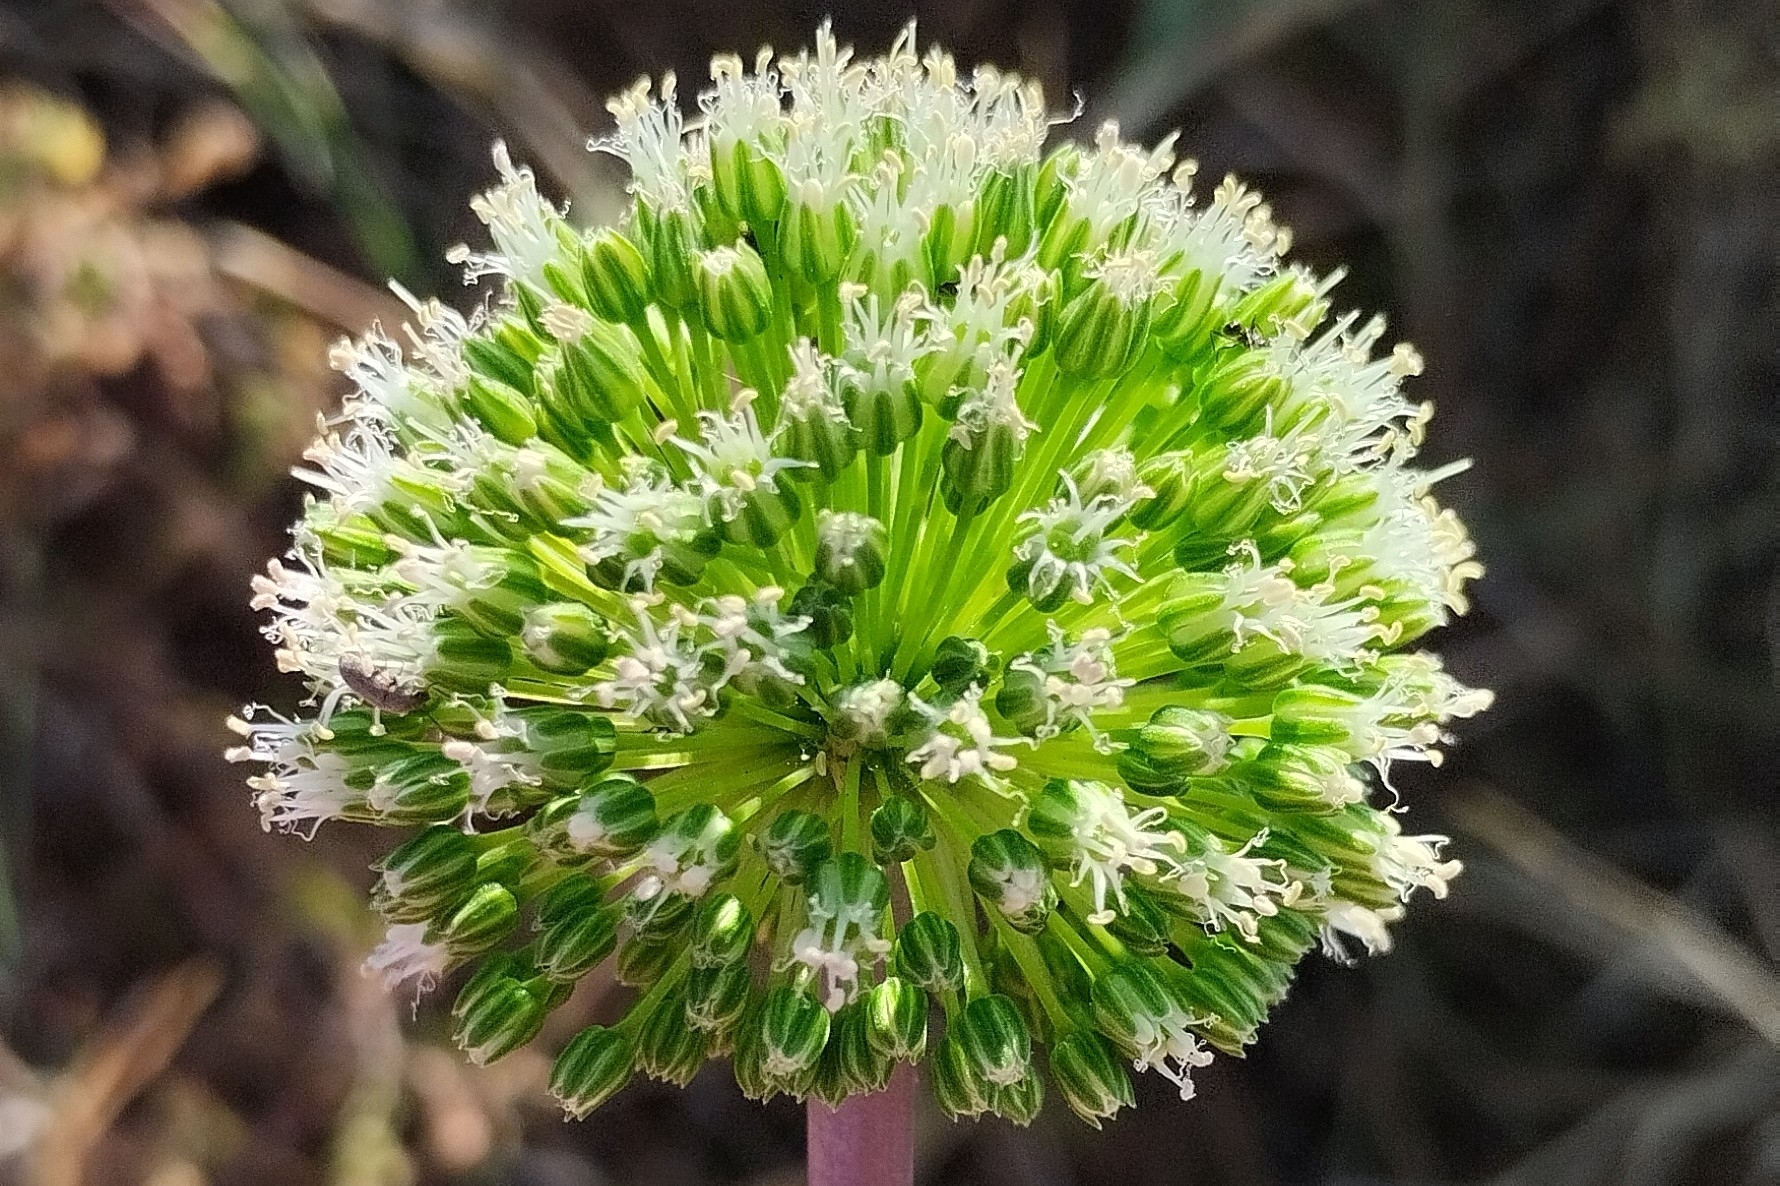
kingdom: Plantae
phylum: Tracheophyta
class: Liliopsida
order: Asparagales
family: Amaryllidaceae
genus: Allium
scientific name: Allium bourgeaui
